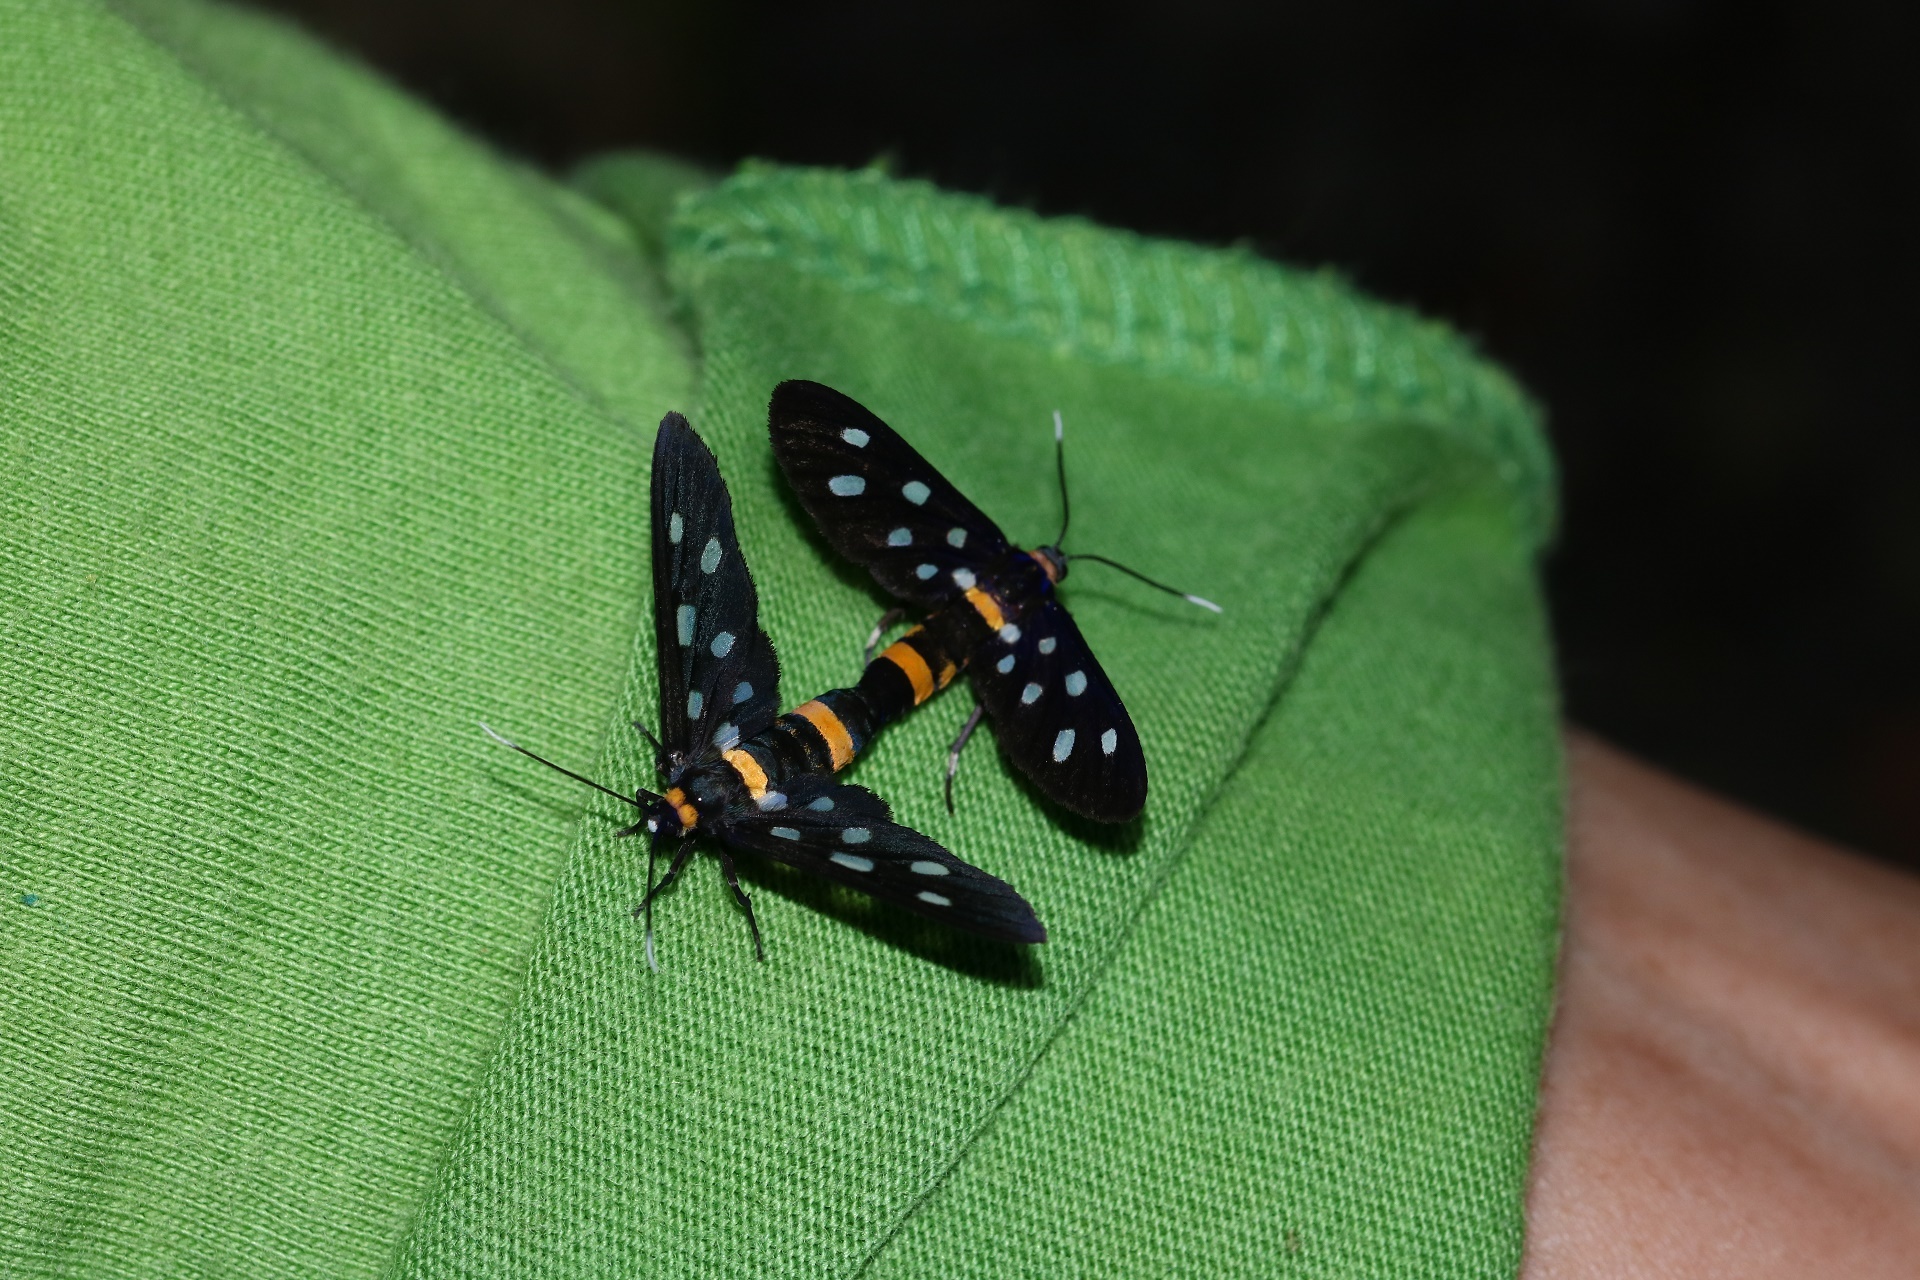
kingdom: Animalia
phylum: Arthropoda
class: Insecta
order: Lepidoptera
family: Erebidae
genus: Amata
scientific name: Amata elisa
